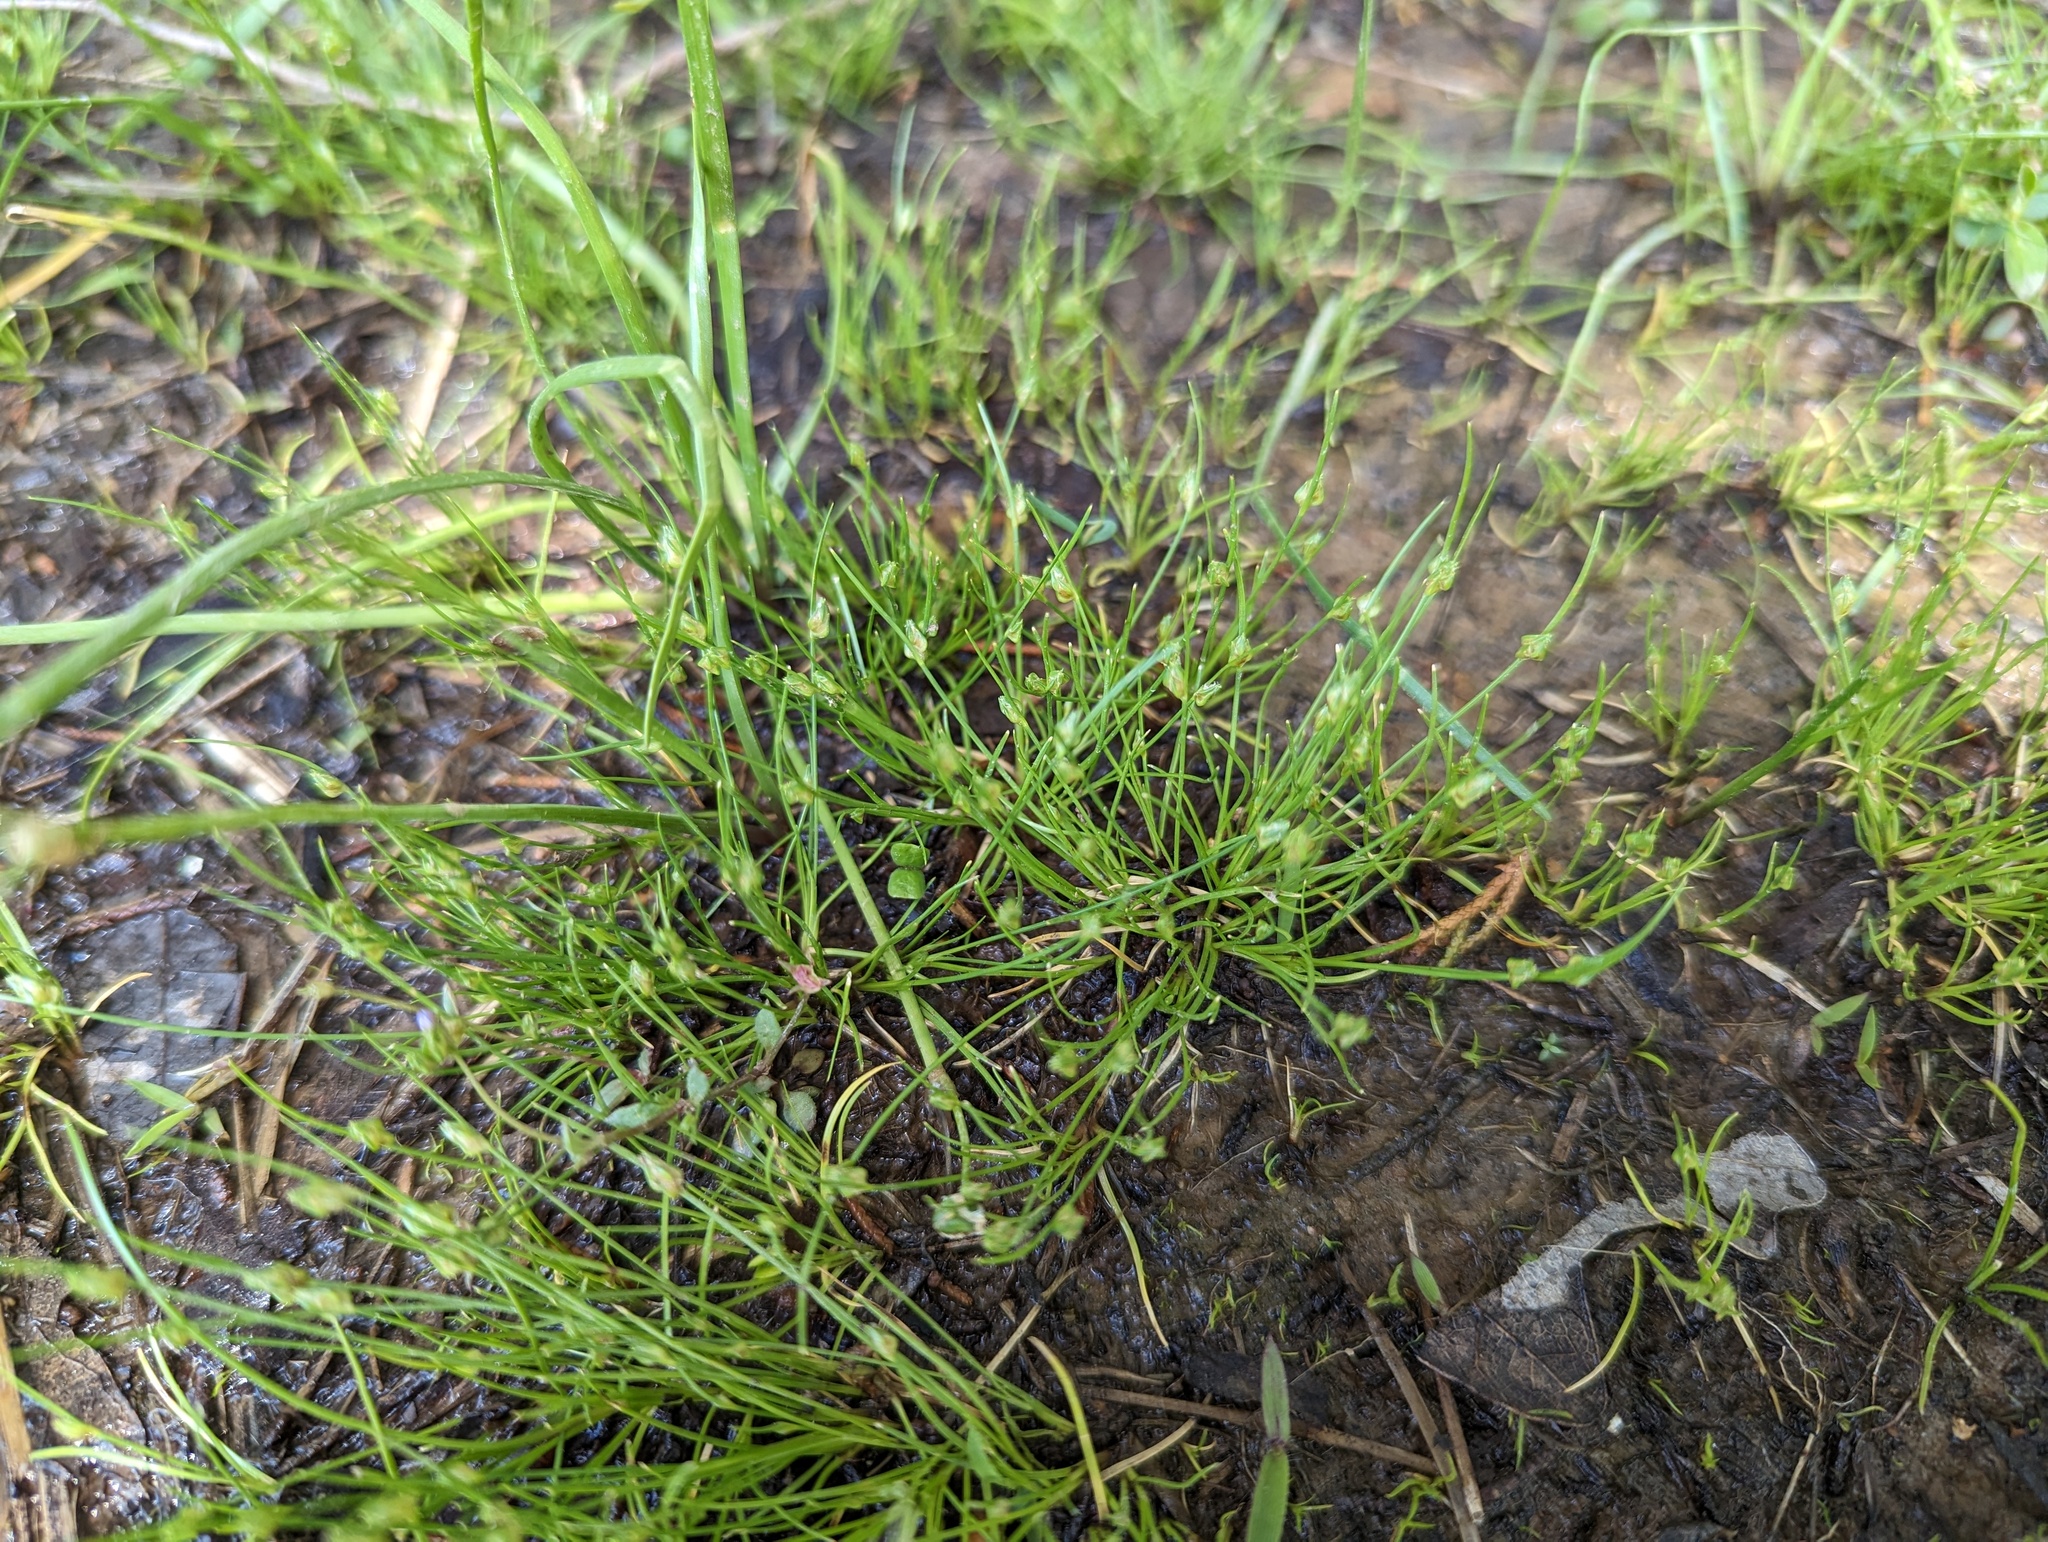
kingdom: Plantae
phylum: Tracheophyta
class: Liliopsida
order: Poales
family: Cyperaceae
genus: Isolepis
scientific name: Isolepis carinata
